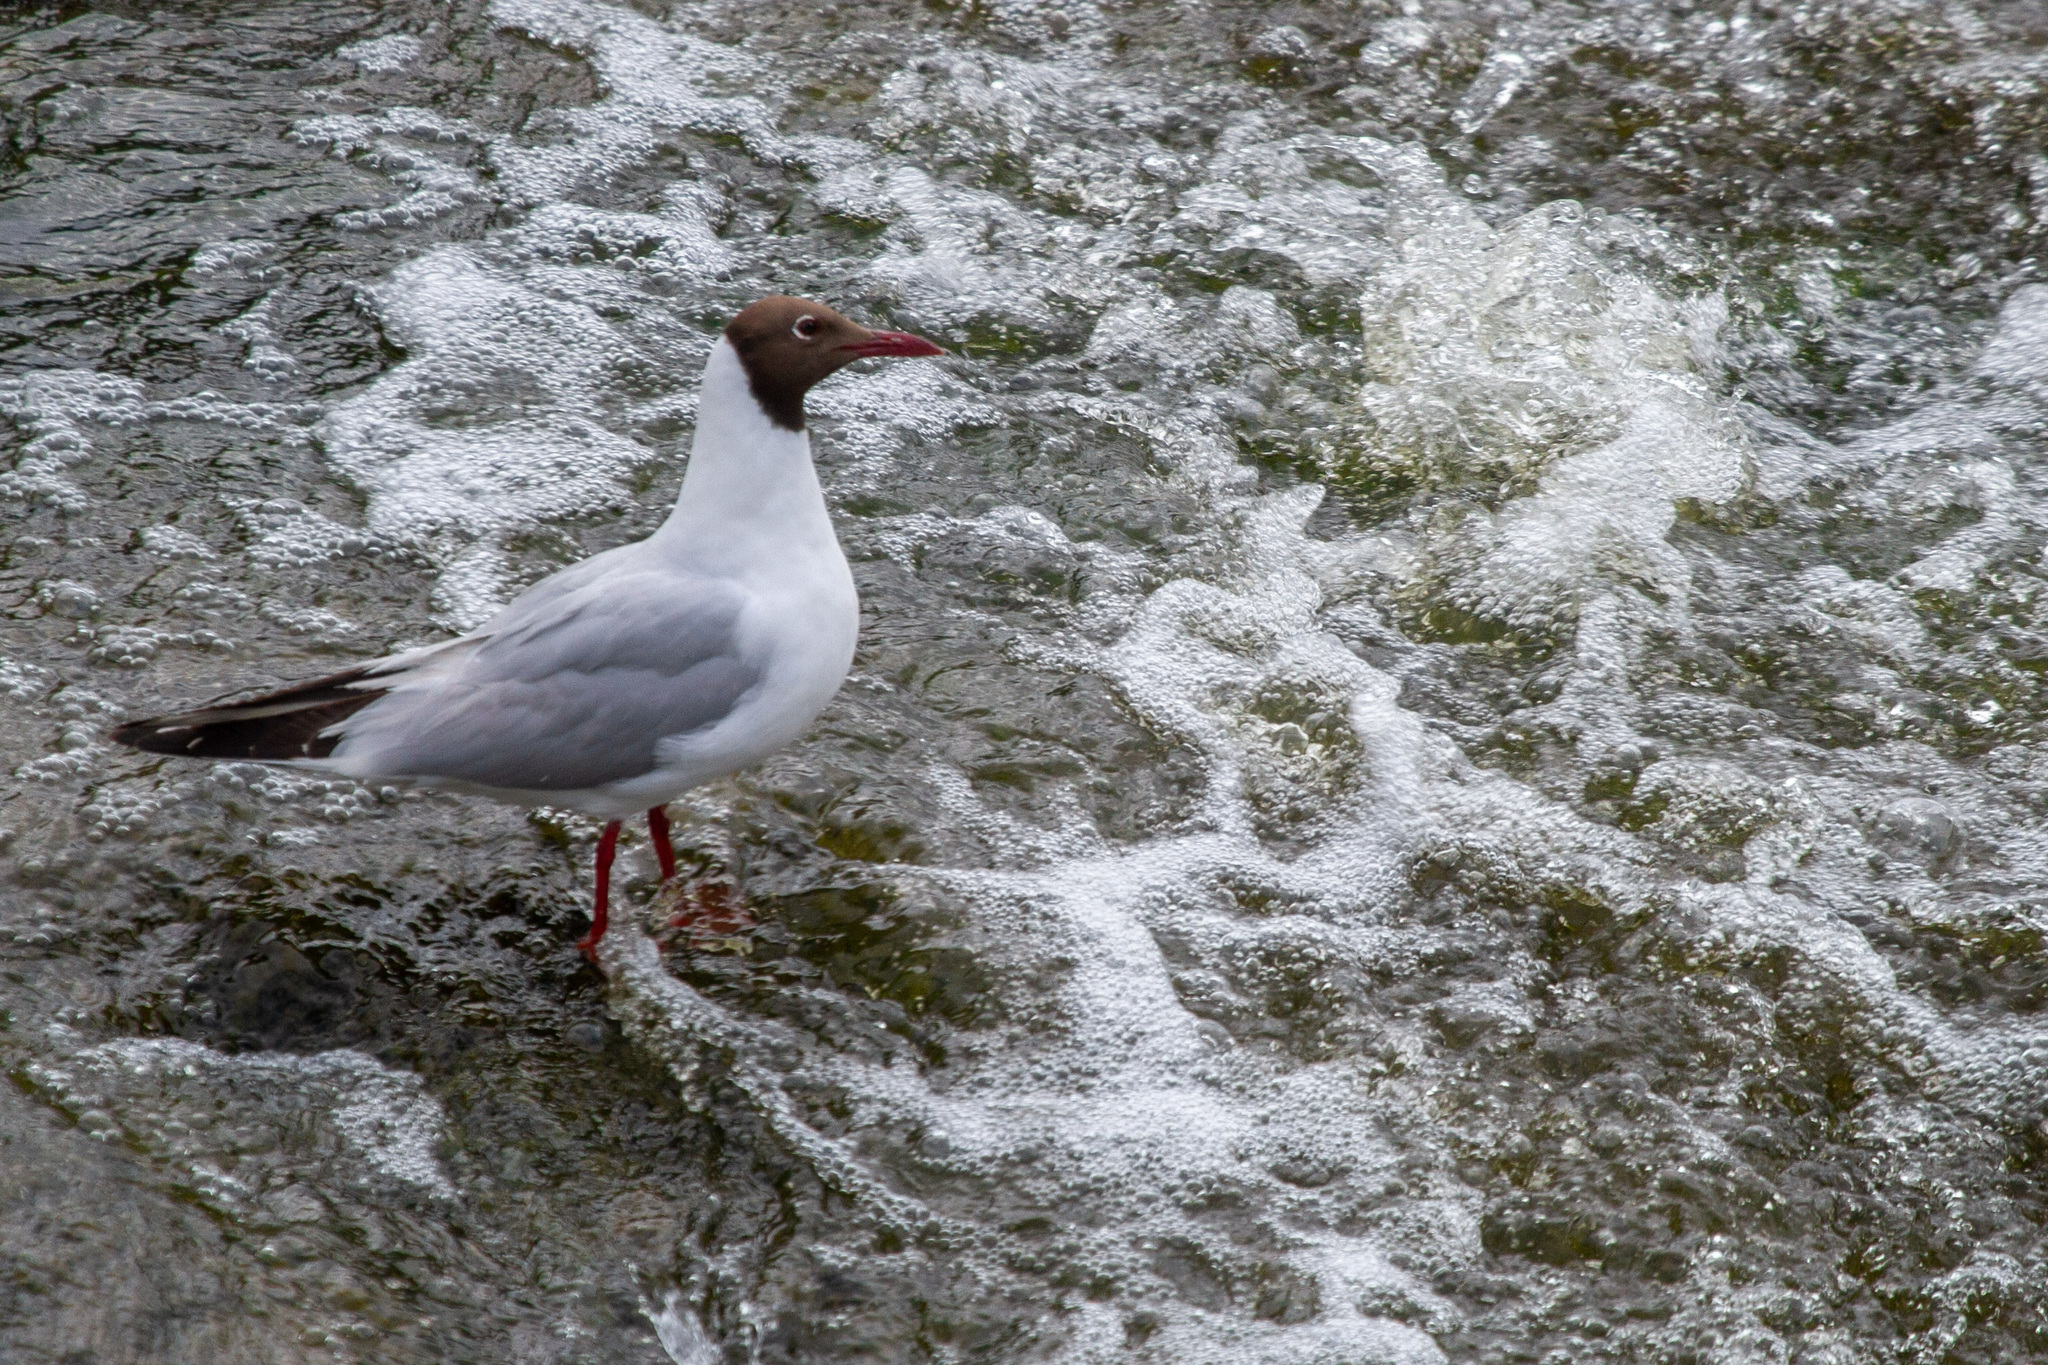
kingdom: Animalia
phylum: Chordata
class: Aves
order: Charadriiformes
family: Laridae
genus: Chroicocephalus
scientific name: Chroicocephalus ridibundus
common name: Black-headed gull
